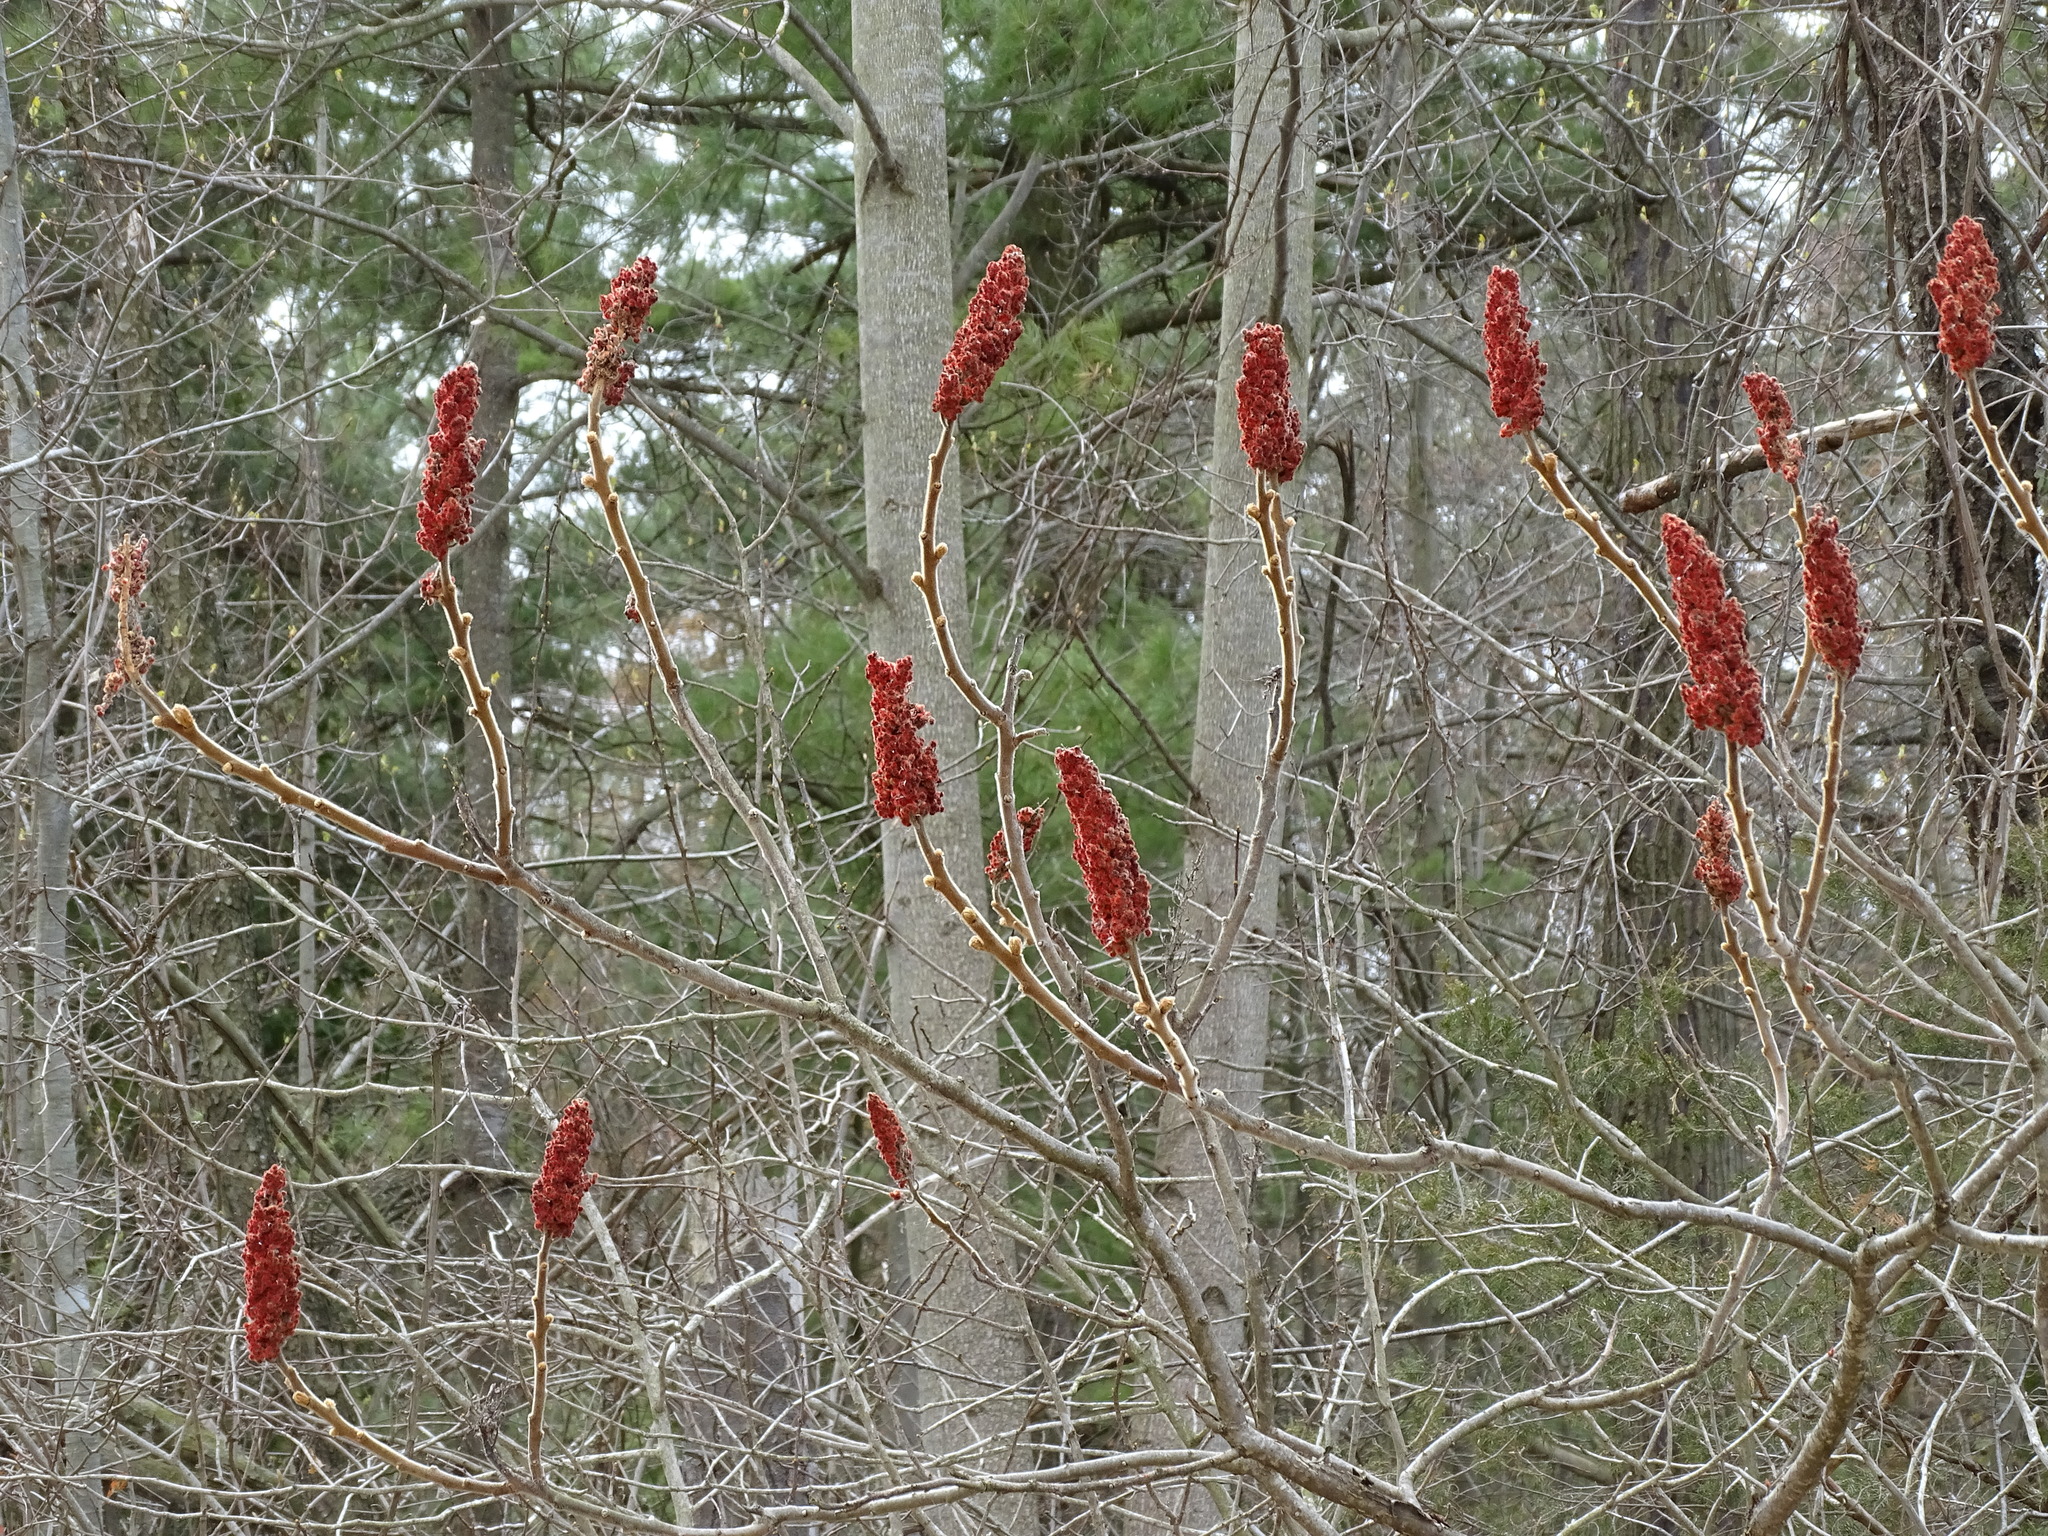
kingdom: Plantae
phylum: Tracheophyta
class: Magnoliopsida
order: Sapindales
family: Anacardiaceae
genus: Rhus
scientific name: Rhus typhina
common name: Staghorn sumac
